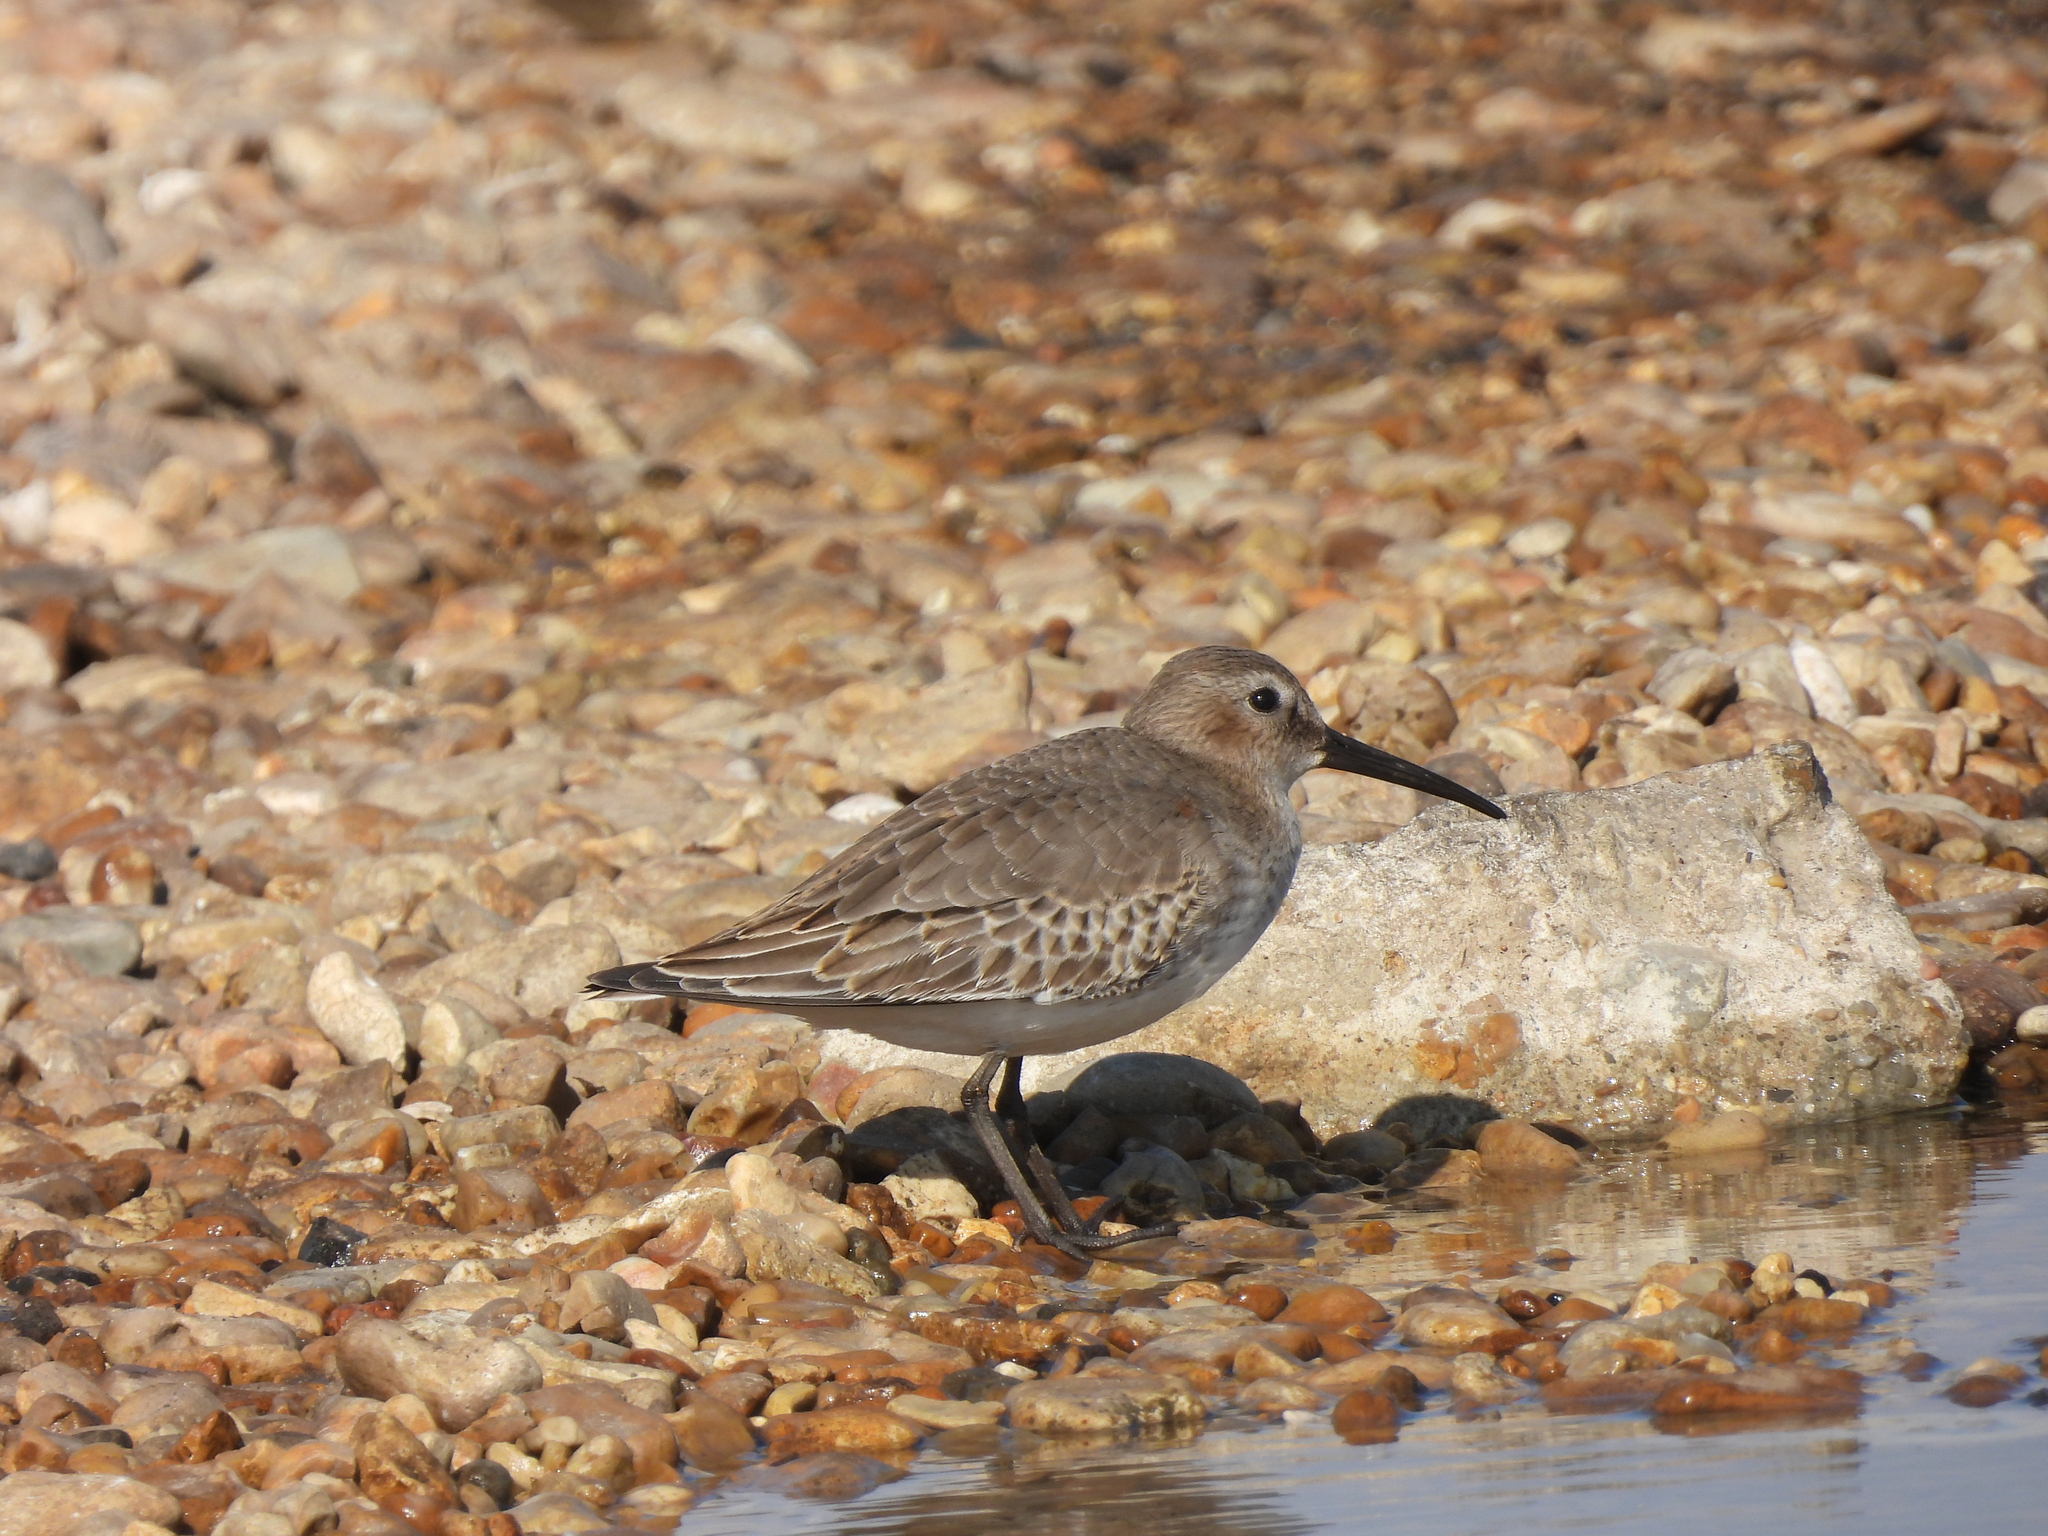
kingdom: Animalia
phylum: Chordata
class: Aves
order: Charadriiformes
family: Scolopacidae
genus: Calidris
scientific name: Calidris alpina
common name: Dunlin
